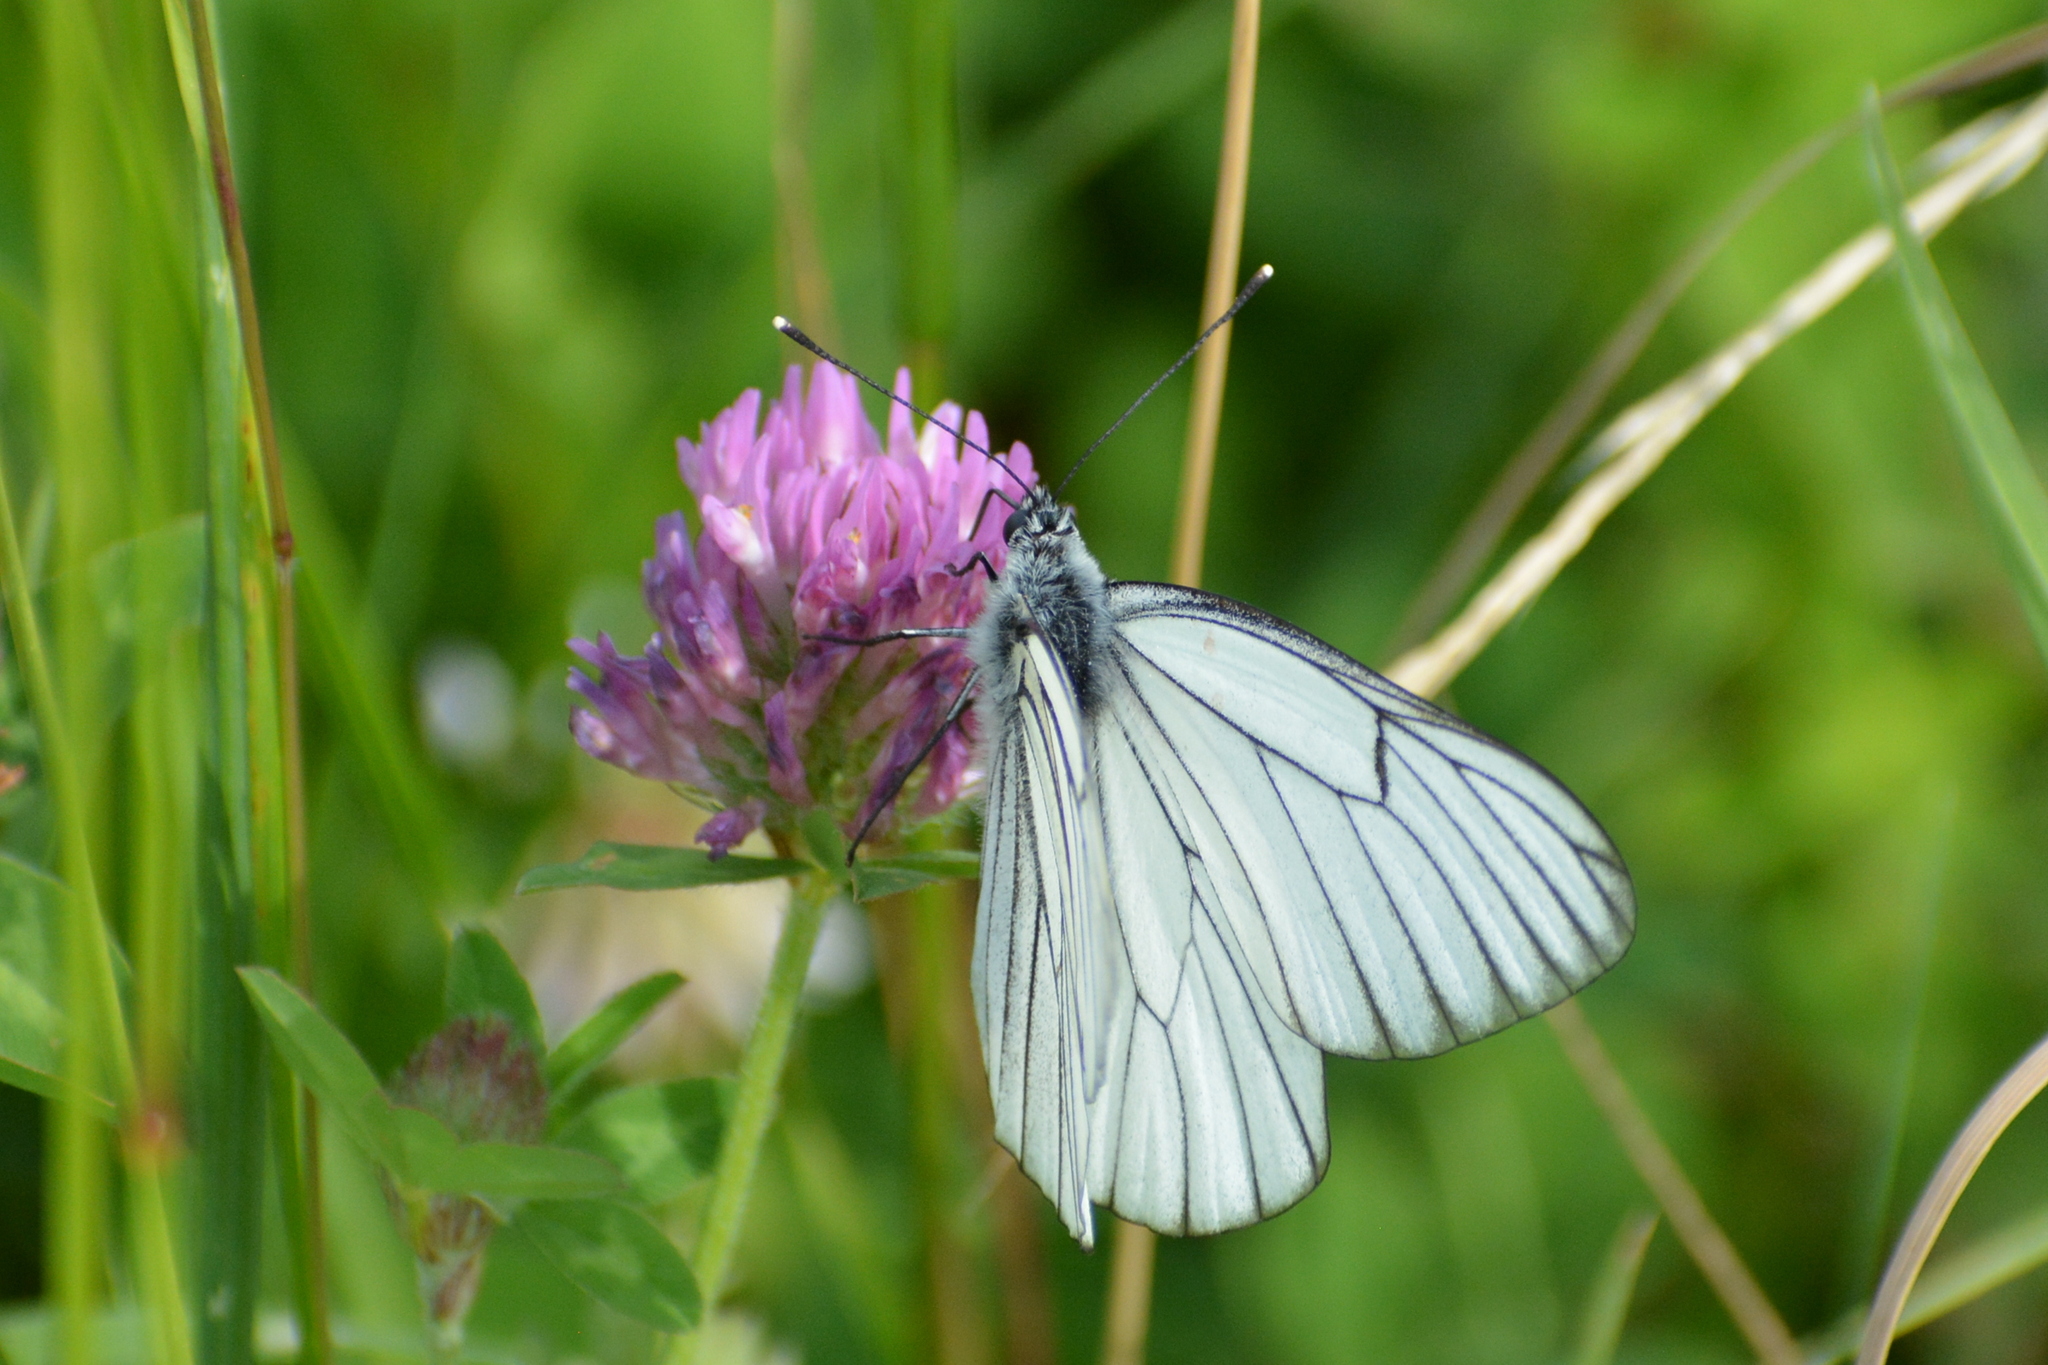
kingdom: Animalia
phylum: Arthropoda
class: Insecta
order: Lepidoptera
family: Pieridae
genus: Aporia
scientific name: Aporia crataegi
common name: Black-veined white
